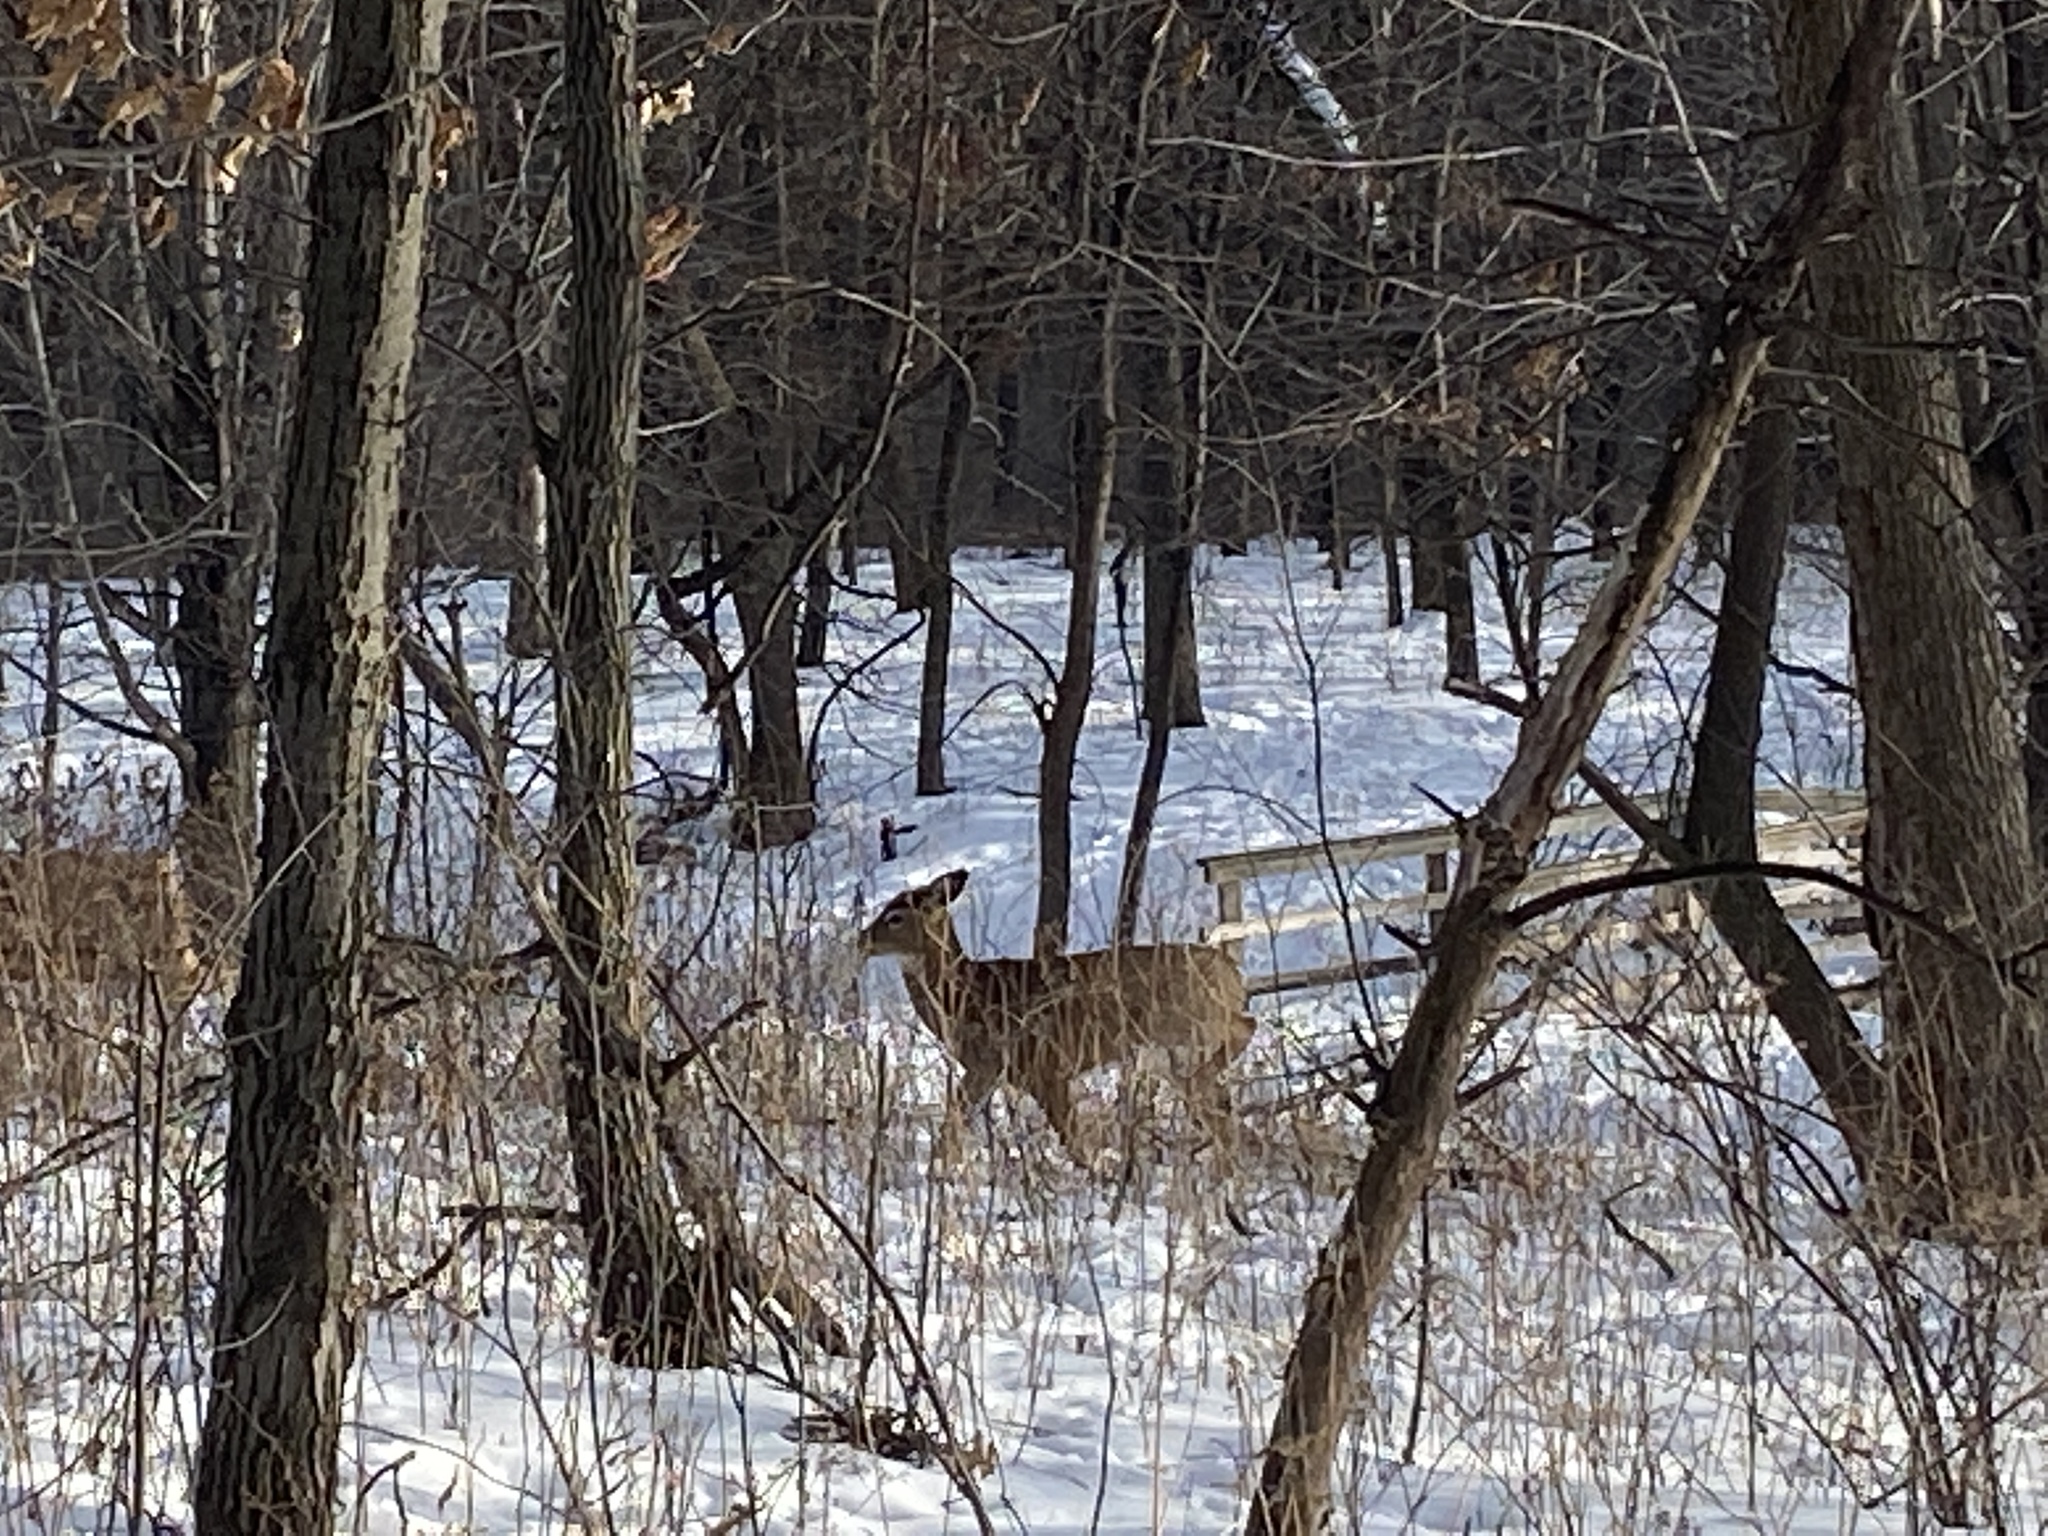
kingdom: Animalia
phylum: Chordata
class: Mammalia
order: Artiodactyla
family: Cervidae
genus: Odocoileus
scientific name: Odocoileus virginianus
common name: White-tailed deer
